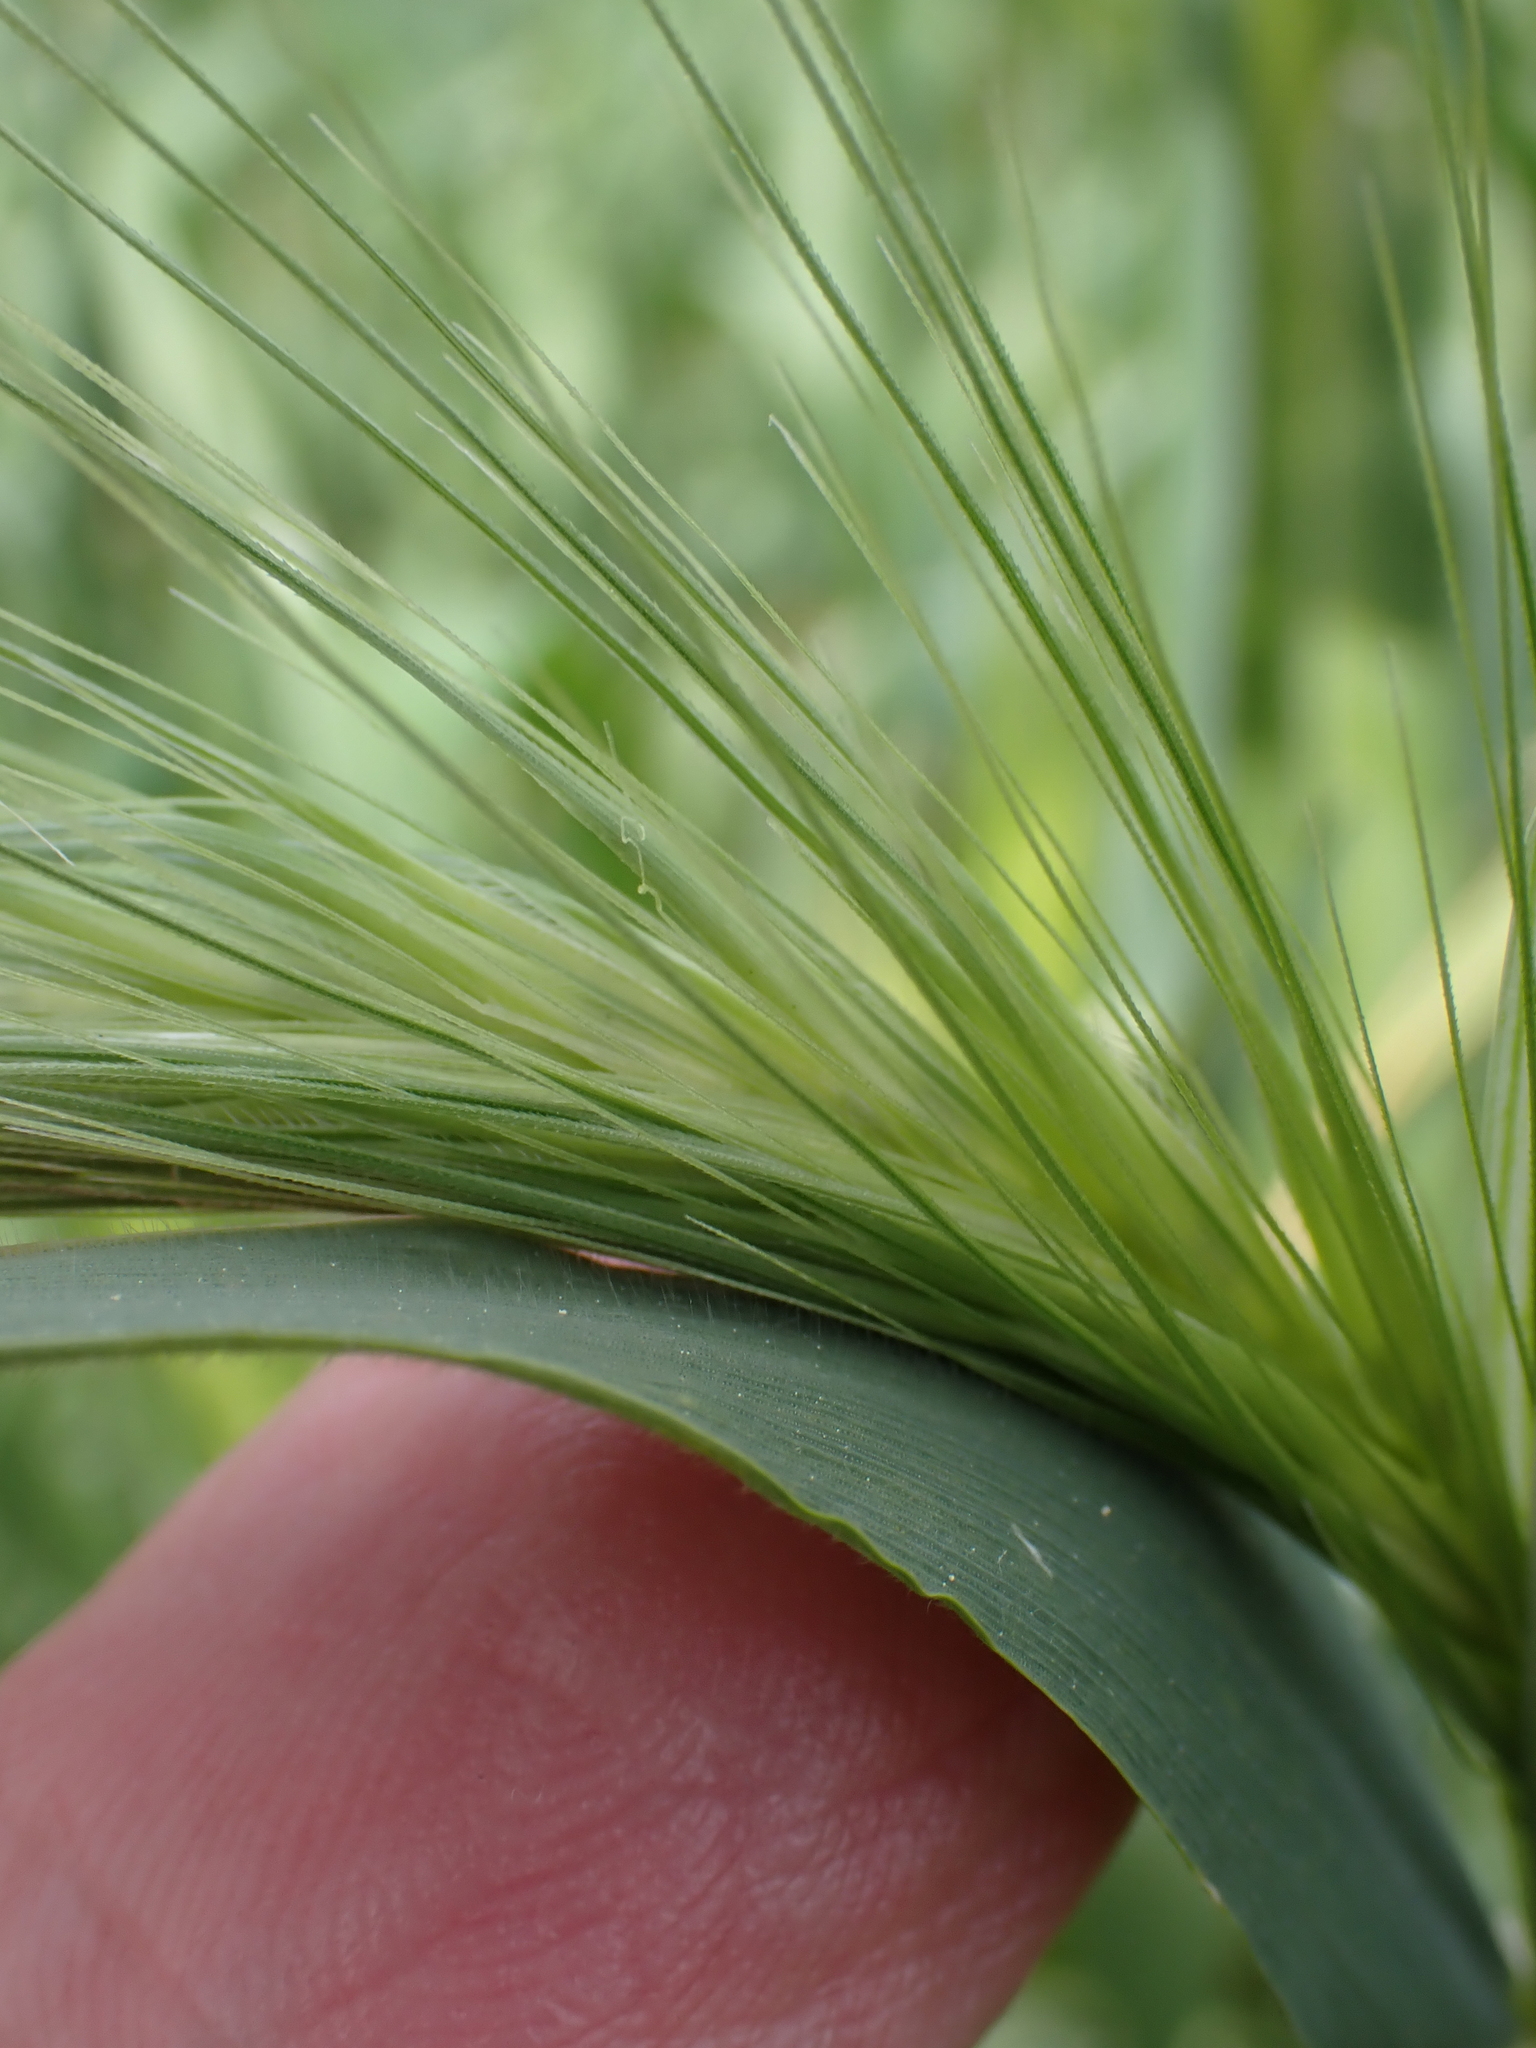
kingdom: Plantae
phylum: Tracheophyta
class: Liliopsida
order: Poales
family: Poaceae
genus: Hordeum
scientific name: Hordeum murinum
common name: Wall barley
